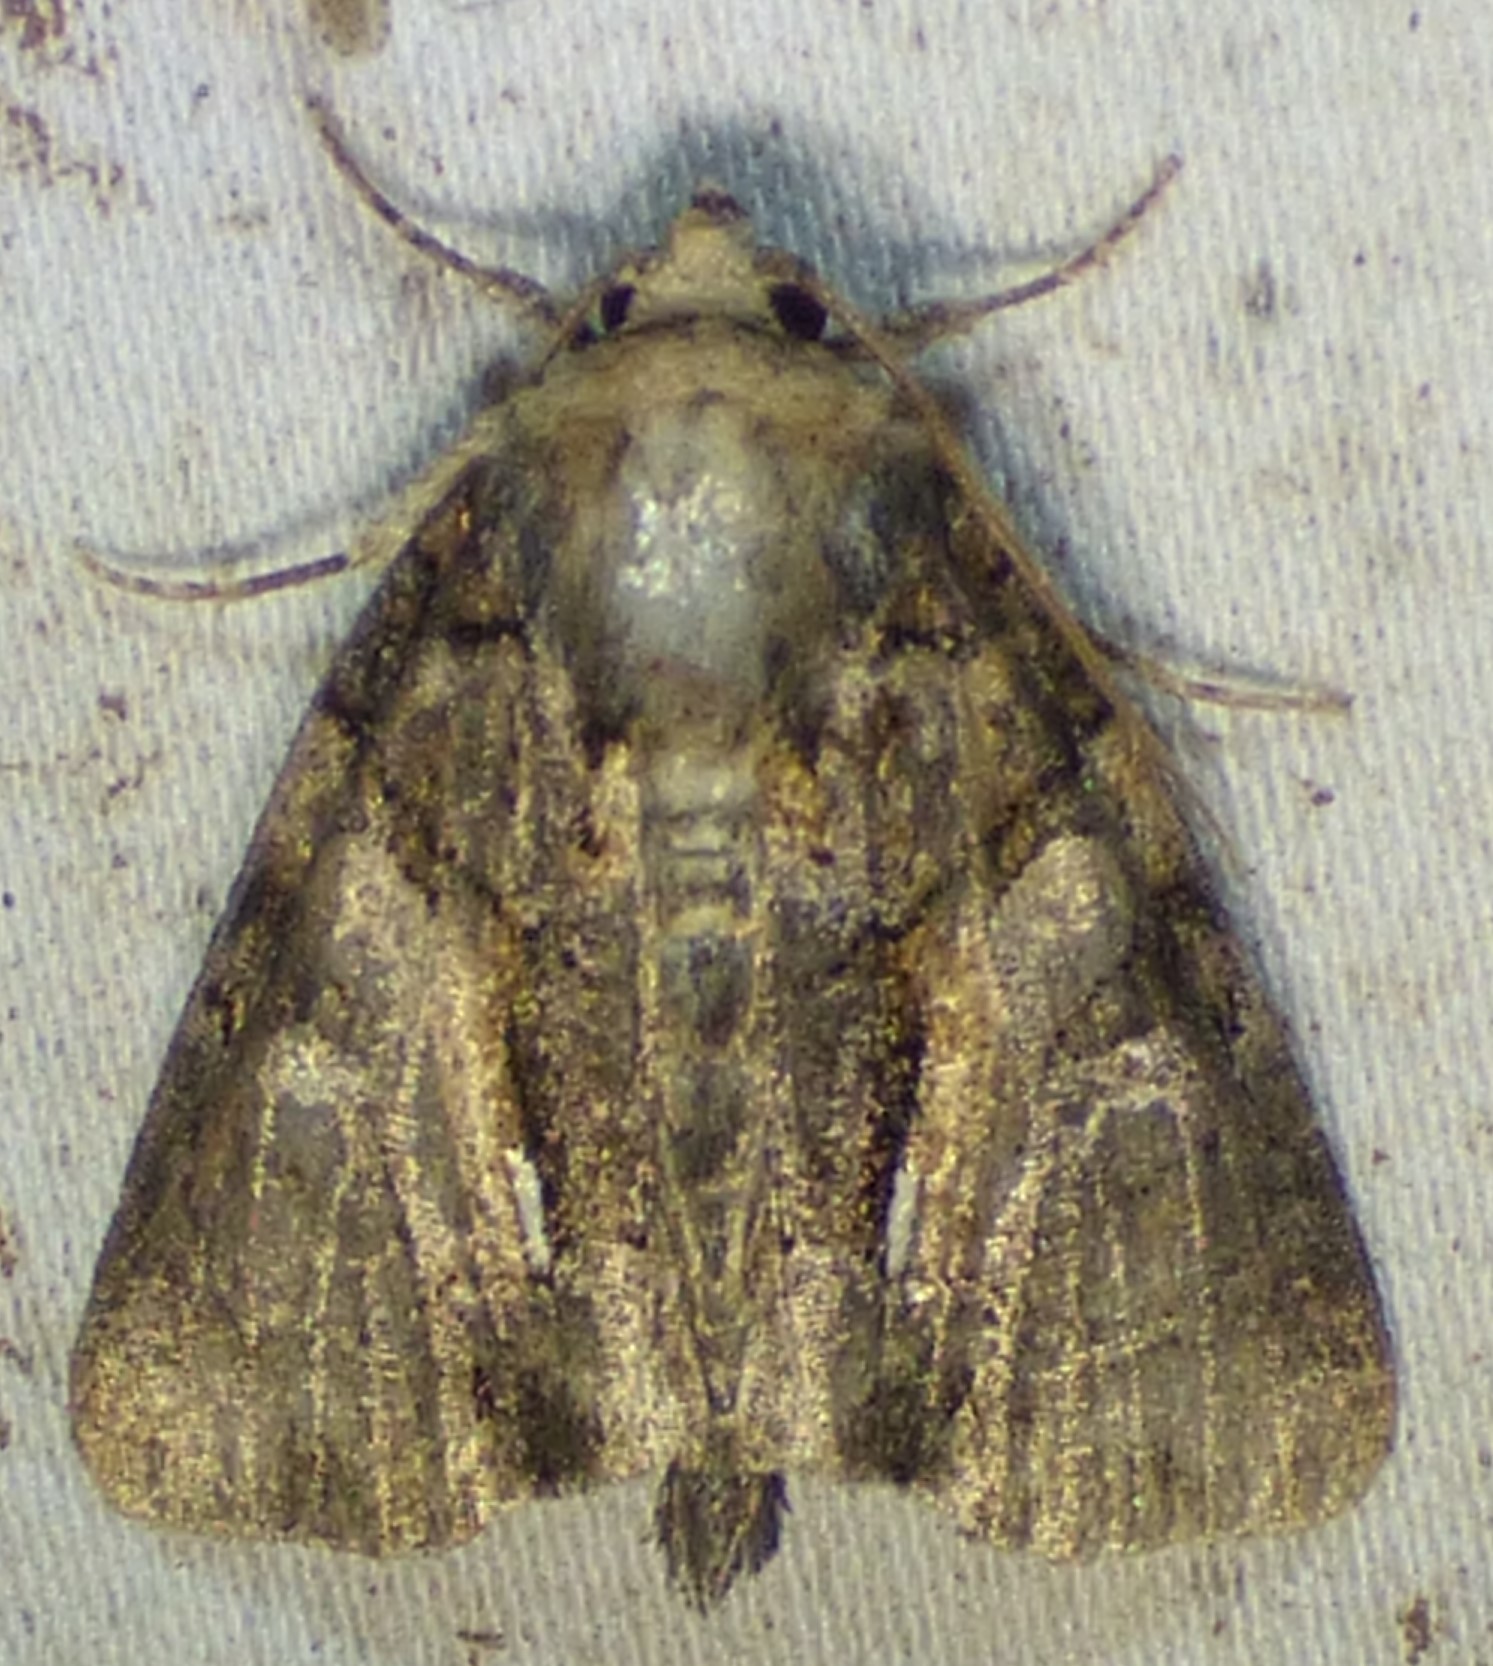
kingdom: Animalia
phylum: Arthropoda
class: Insecta
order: Lepidoptera
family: Noctuidae
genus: Chytonix
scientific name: Chytonix palliatricula
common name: Cloaked marvel
